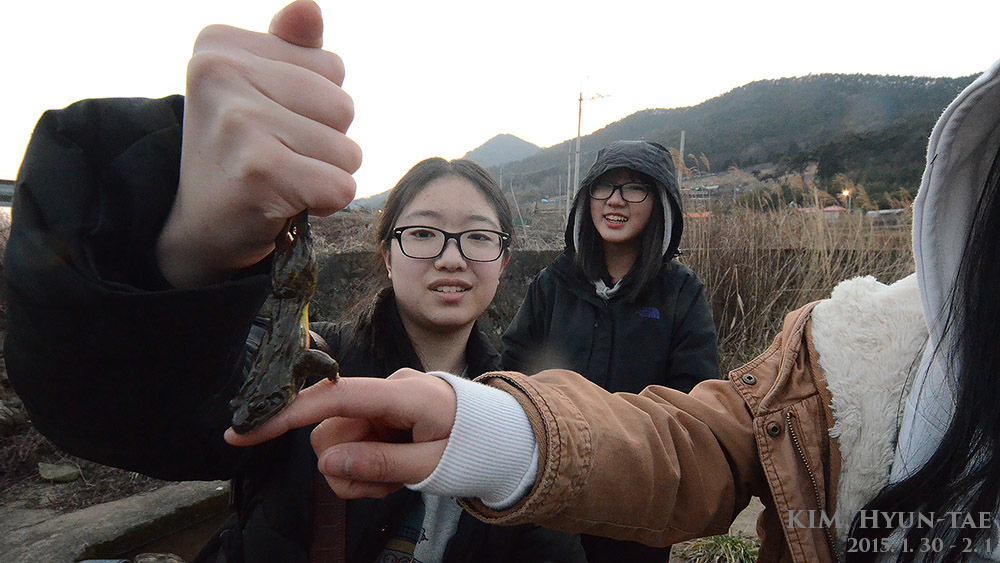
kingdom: Animalia
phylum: Chordata
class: Amphibia
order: Anura
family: Ranidae
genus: Rana
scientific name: Rana uenoi
